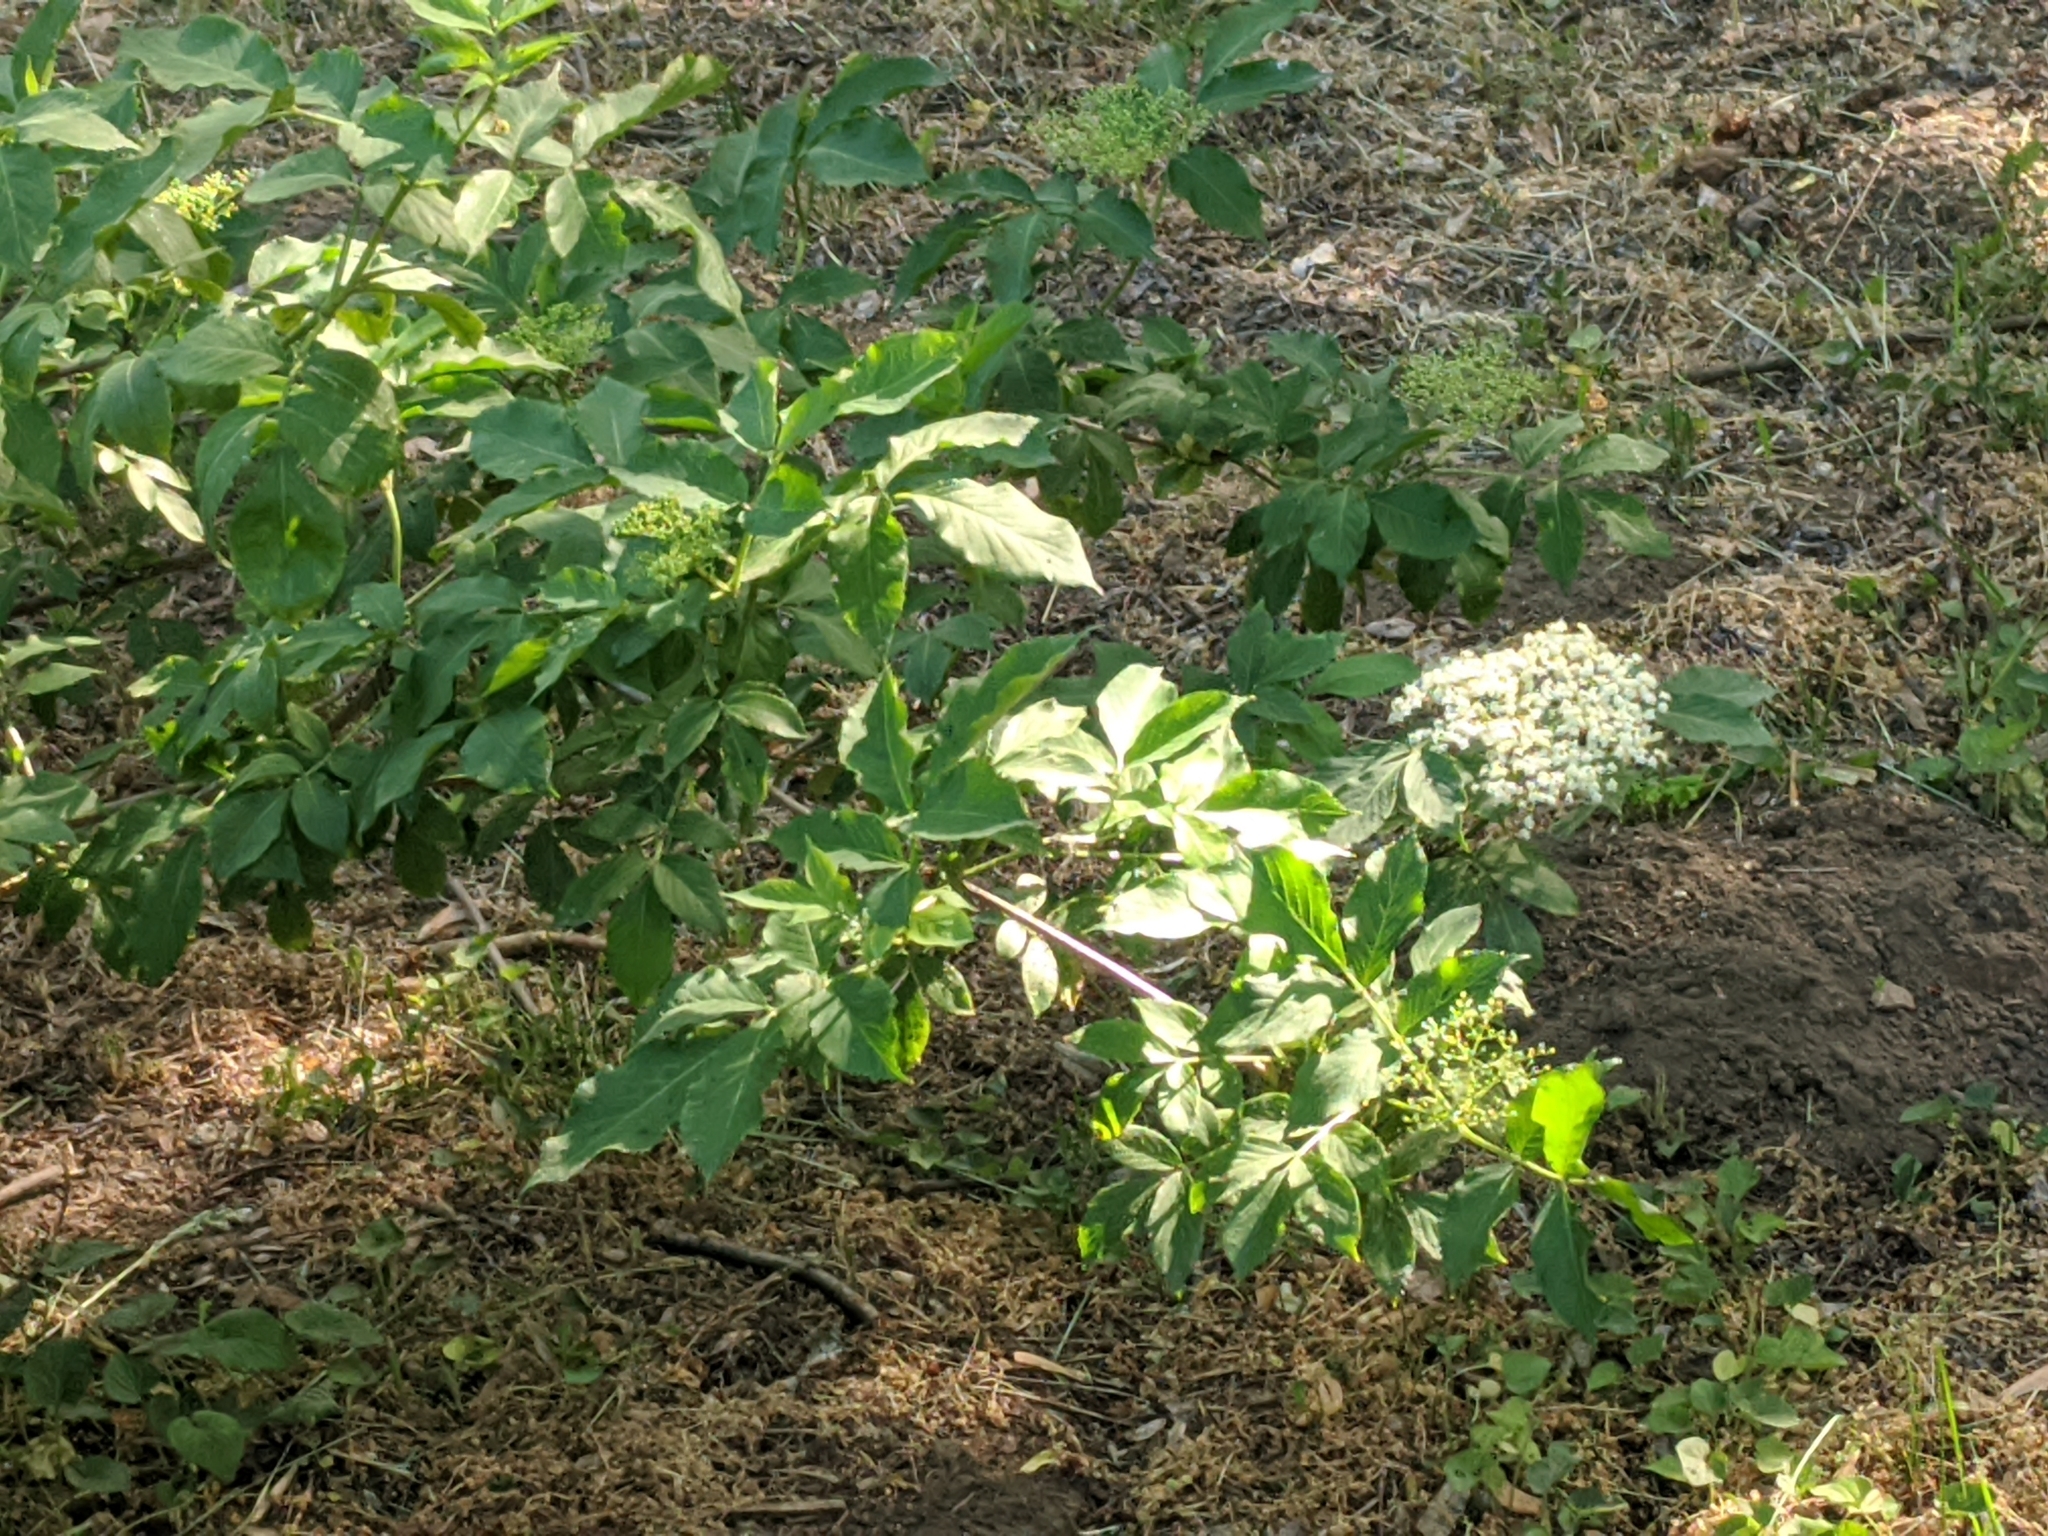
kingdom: Plantae
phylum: Tracheophyta
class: Magnoliopsida
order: Dipsacales
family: Viburnaceae
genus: Sambucus
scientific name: Sambucus nigra
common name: Elder
